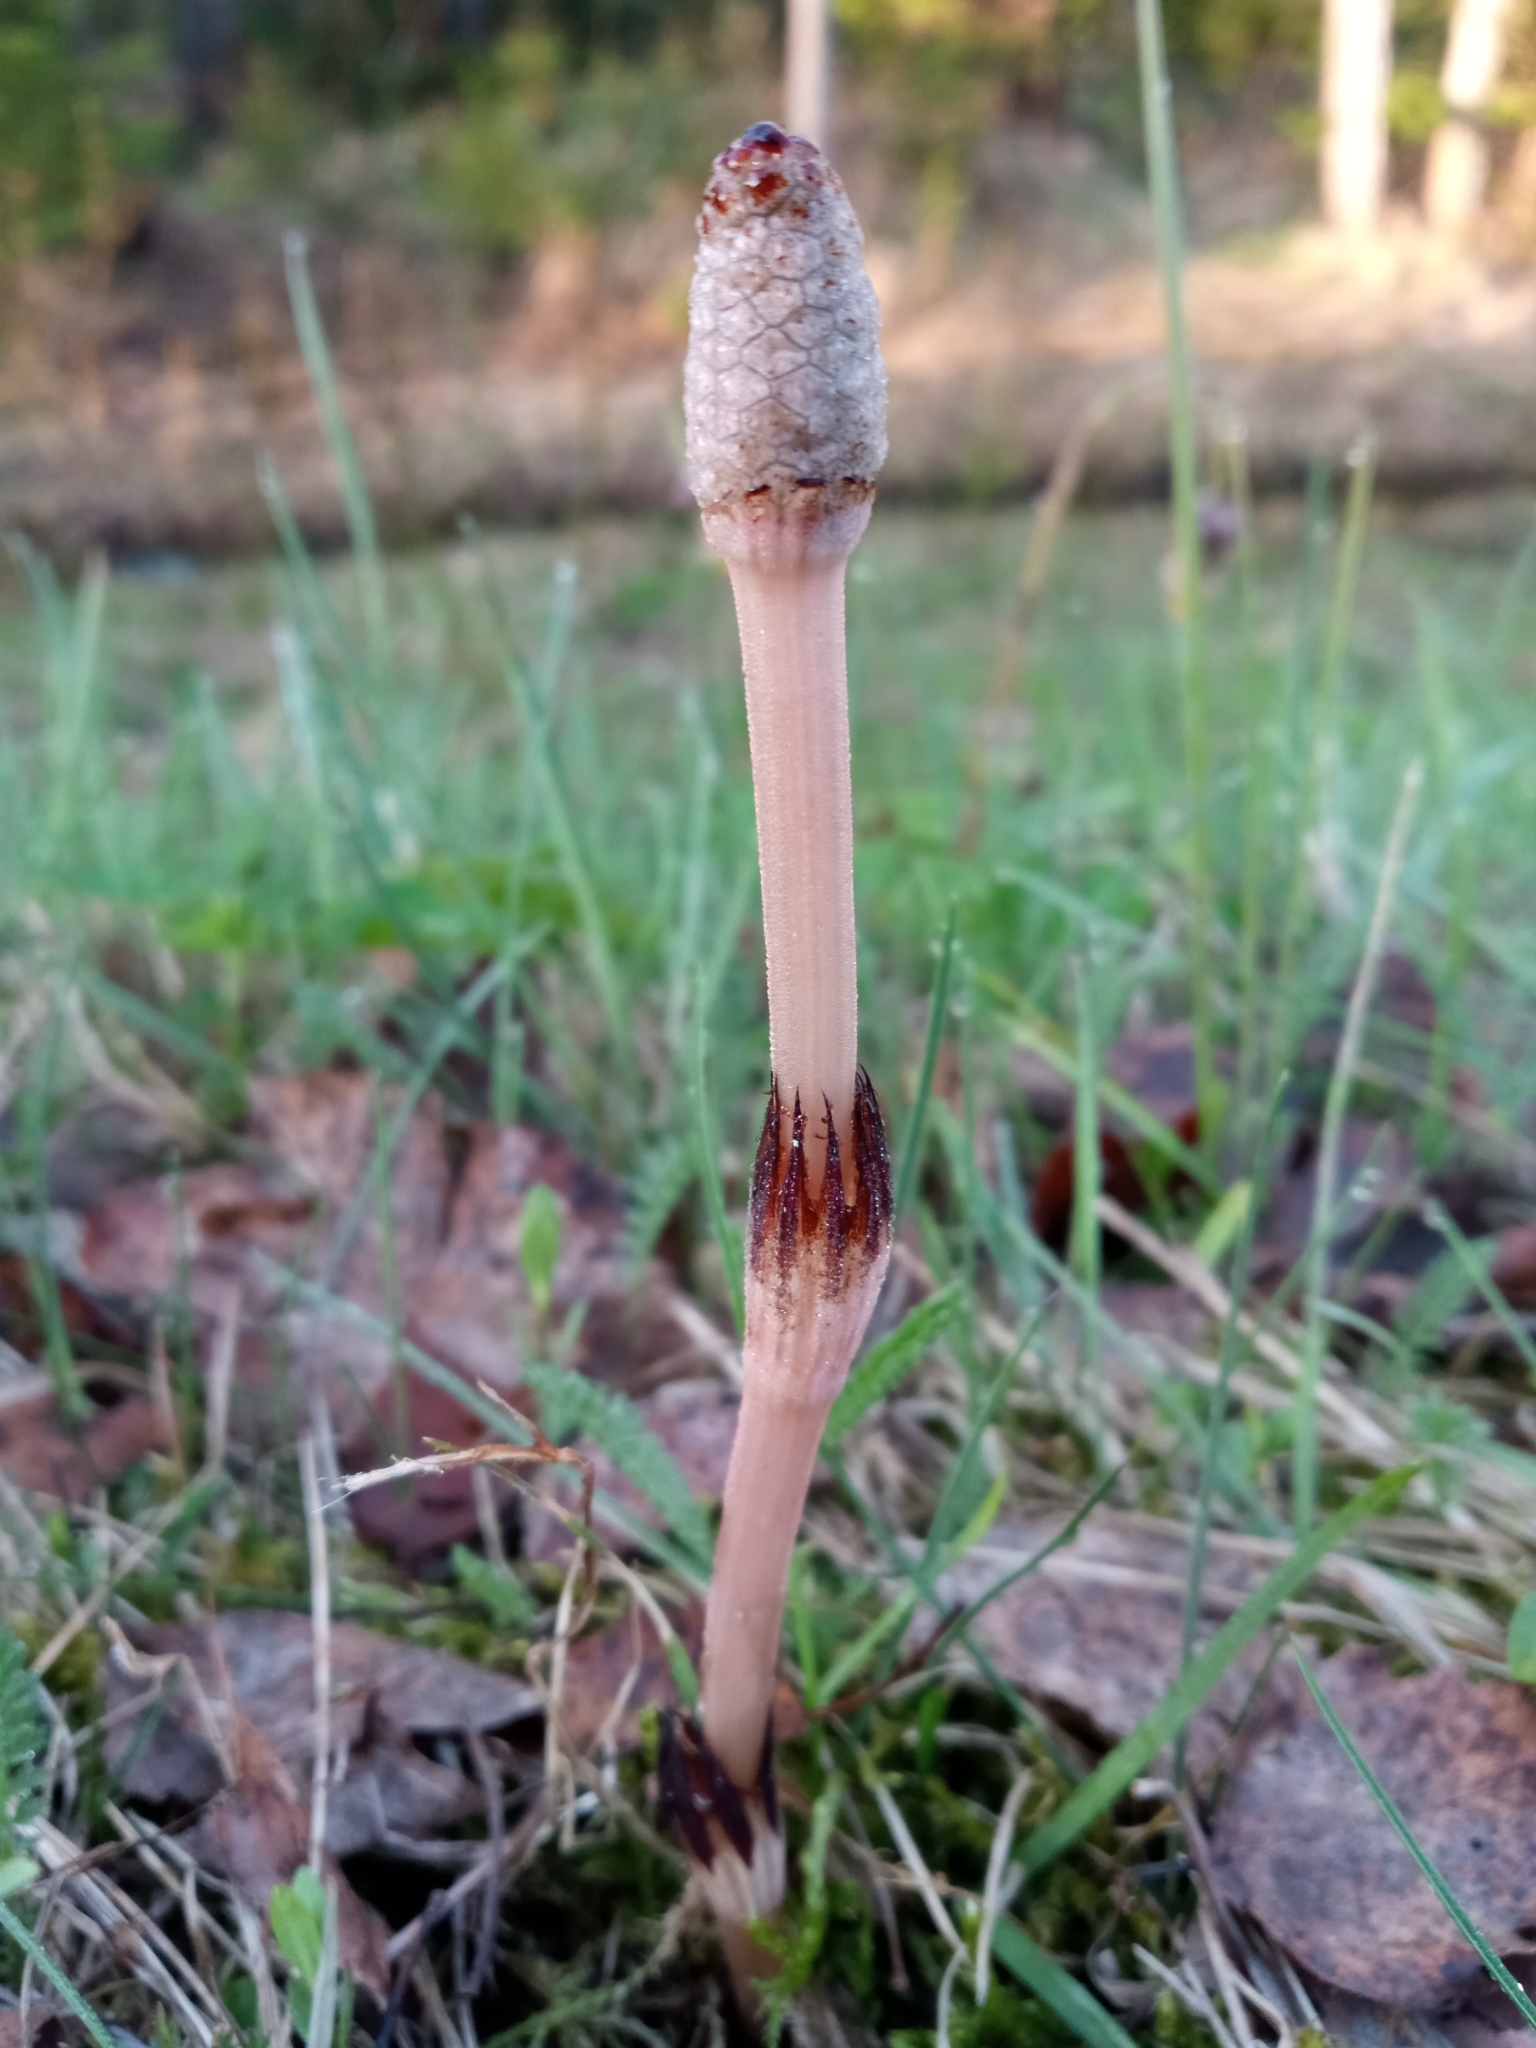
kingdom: Plantae
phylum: Tracheophyta
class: Polypodiopsida
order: Equisetales
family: Equisetaceae
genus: Equisetum
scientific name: Equisetum arvense
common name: Field horsetail
